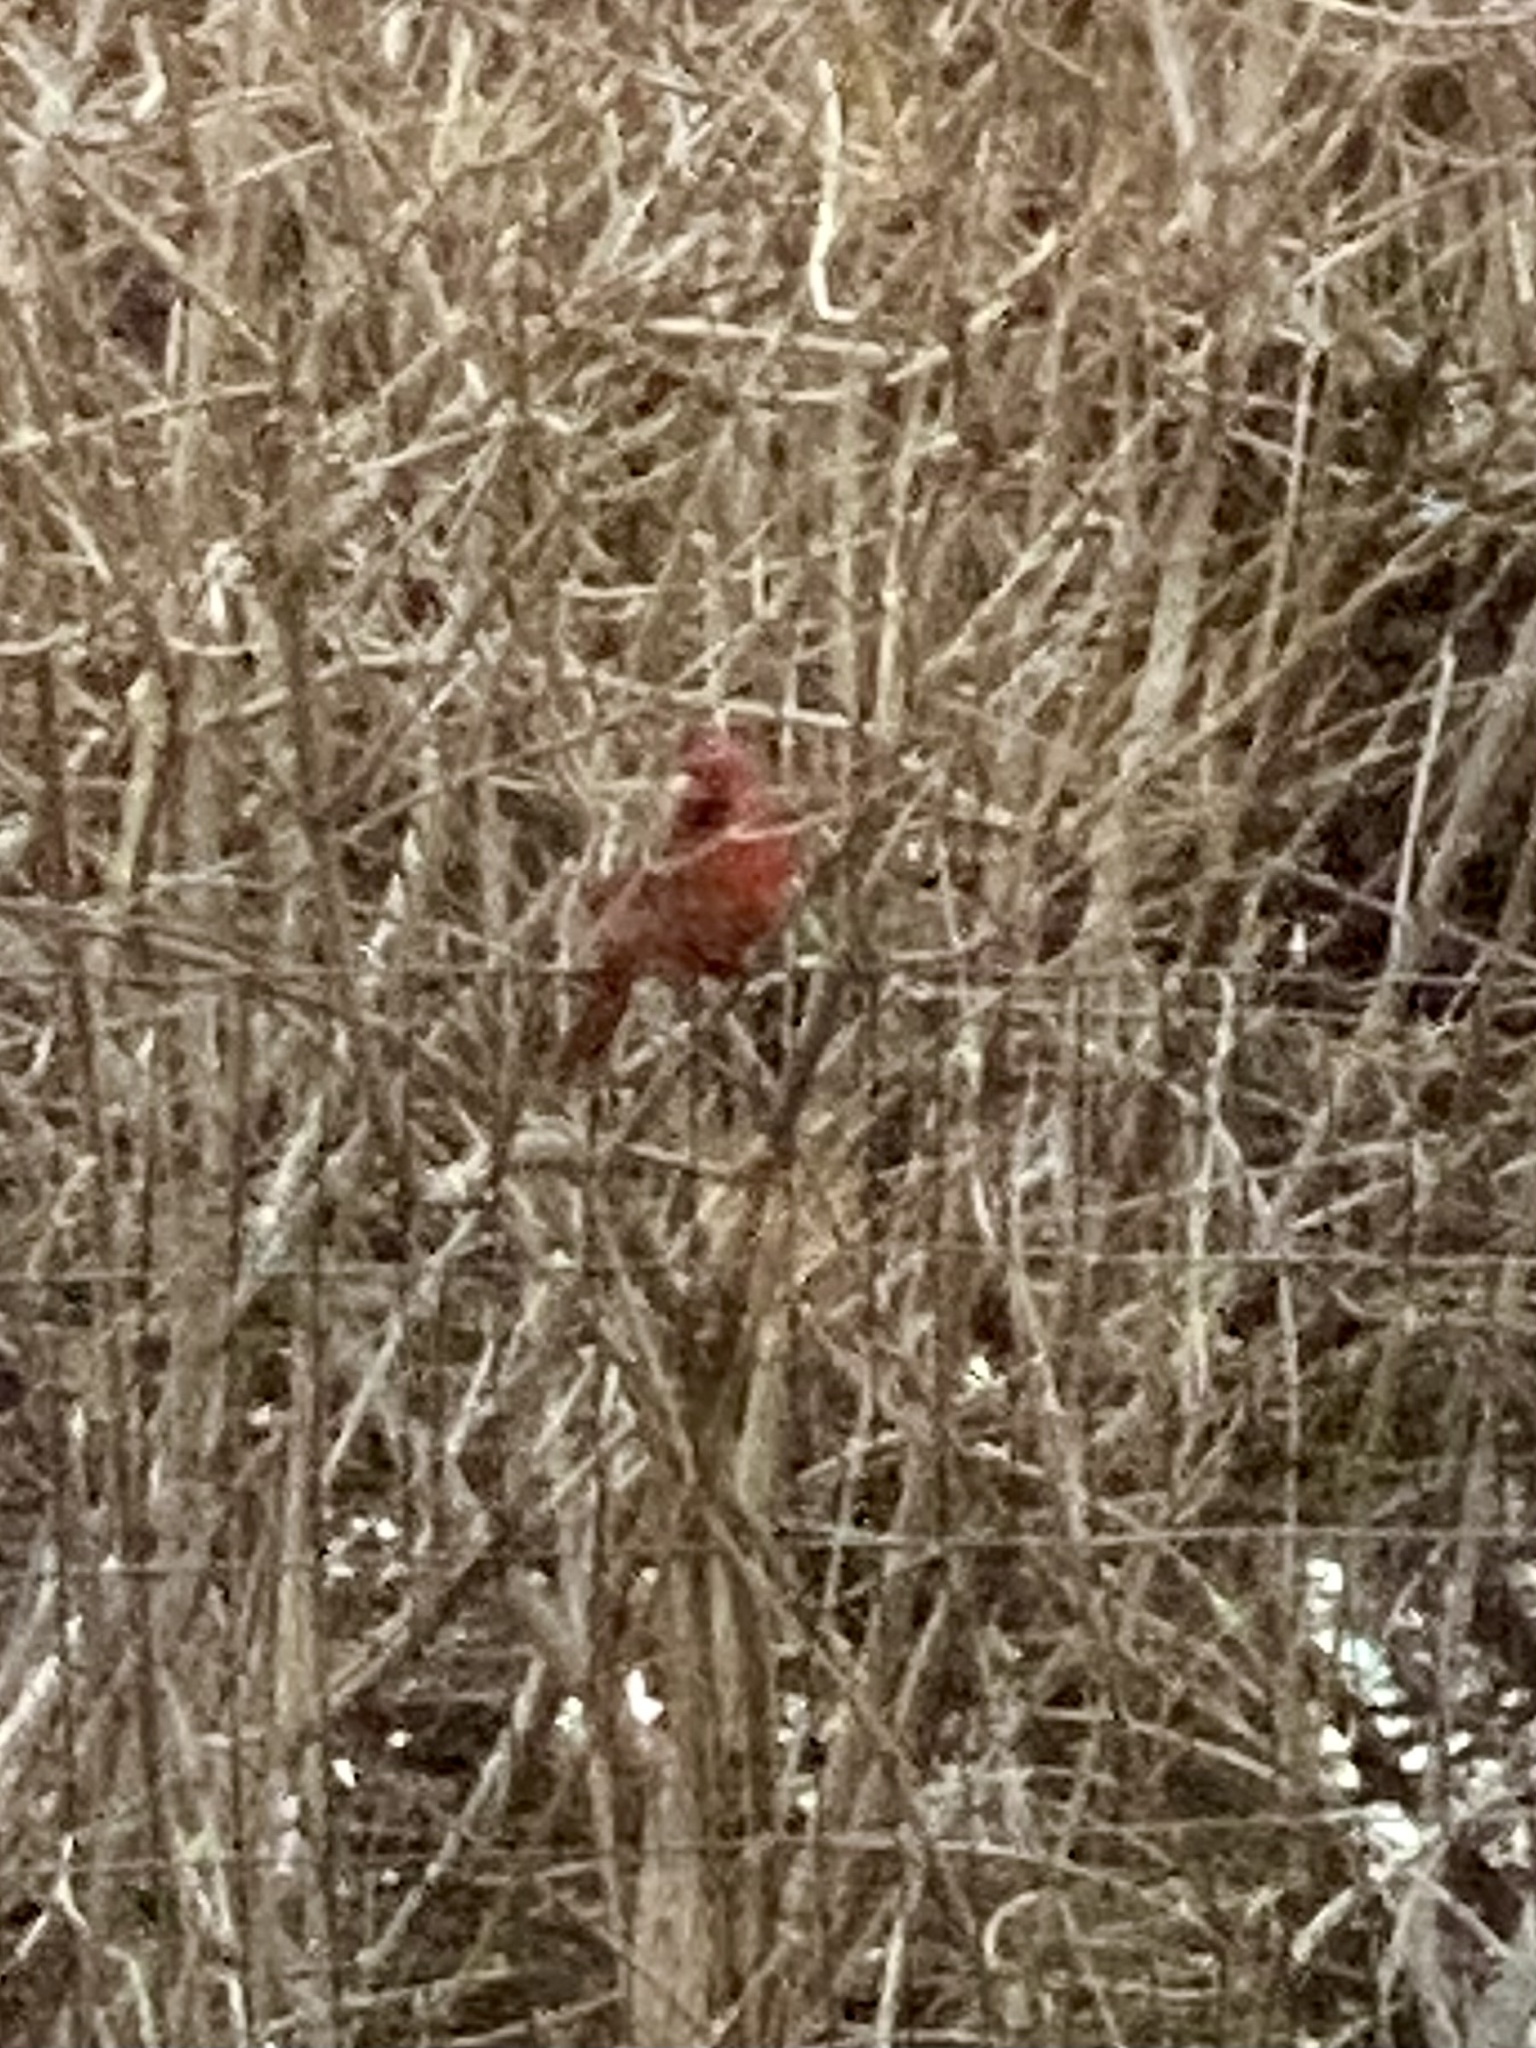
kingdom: Animalia
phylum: Chordata
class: Aves
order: Passeriformes
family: Cardinalidae
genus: Cardinalis
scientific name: Cardinalis cardinalis
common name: Northern cardinal
